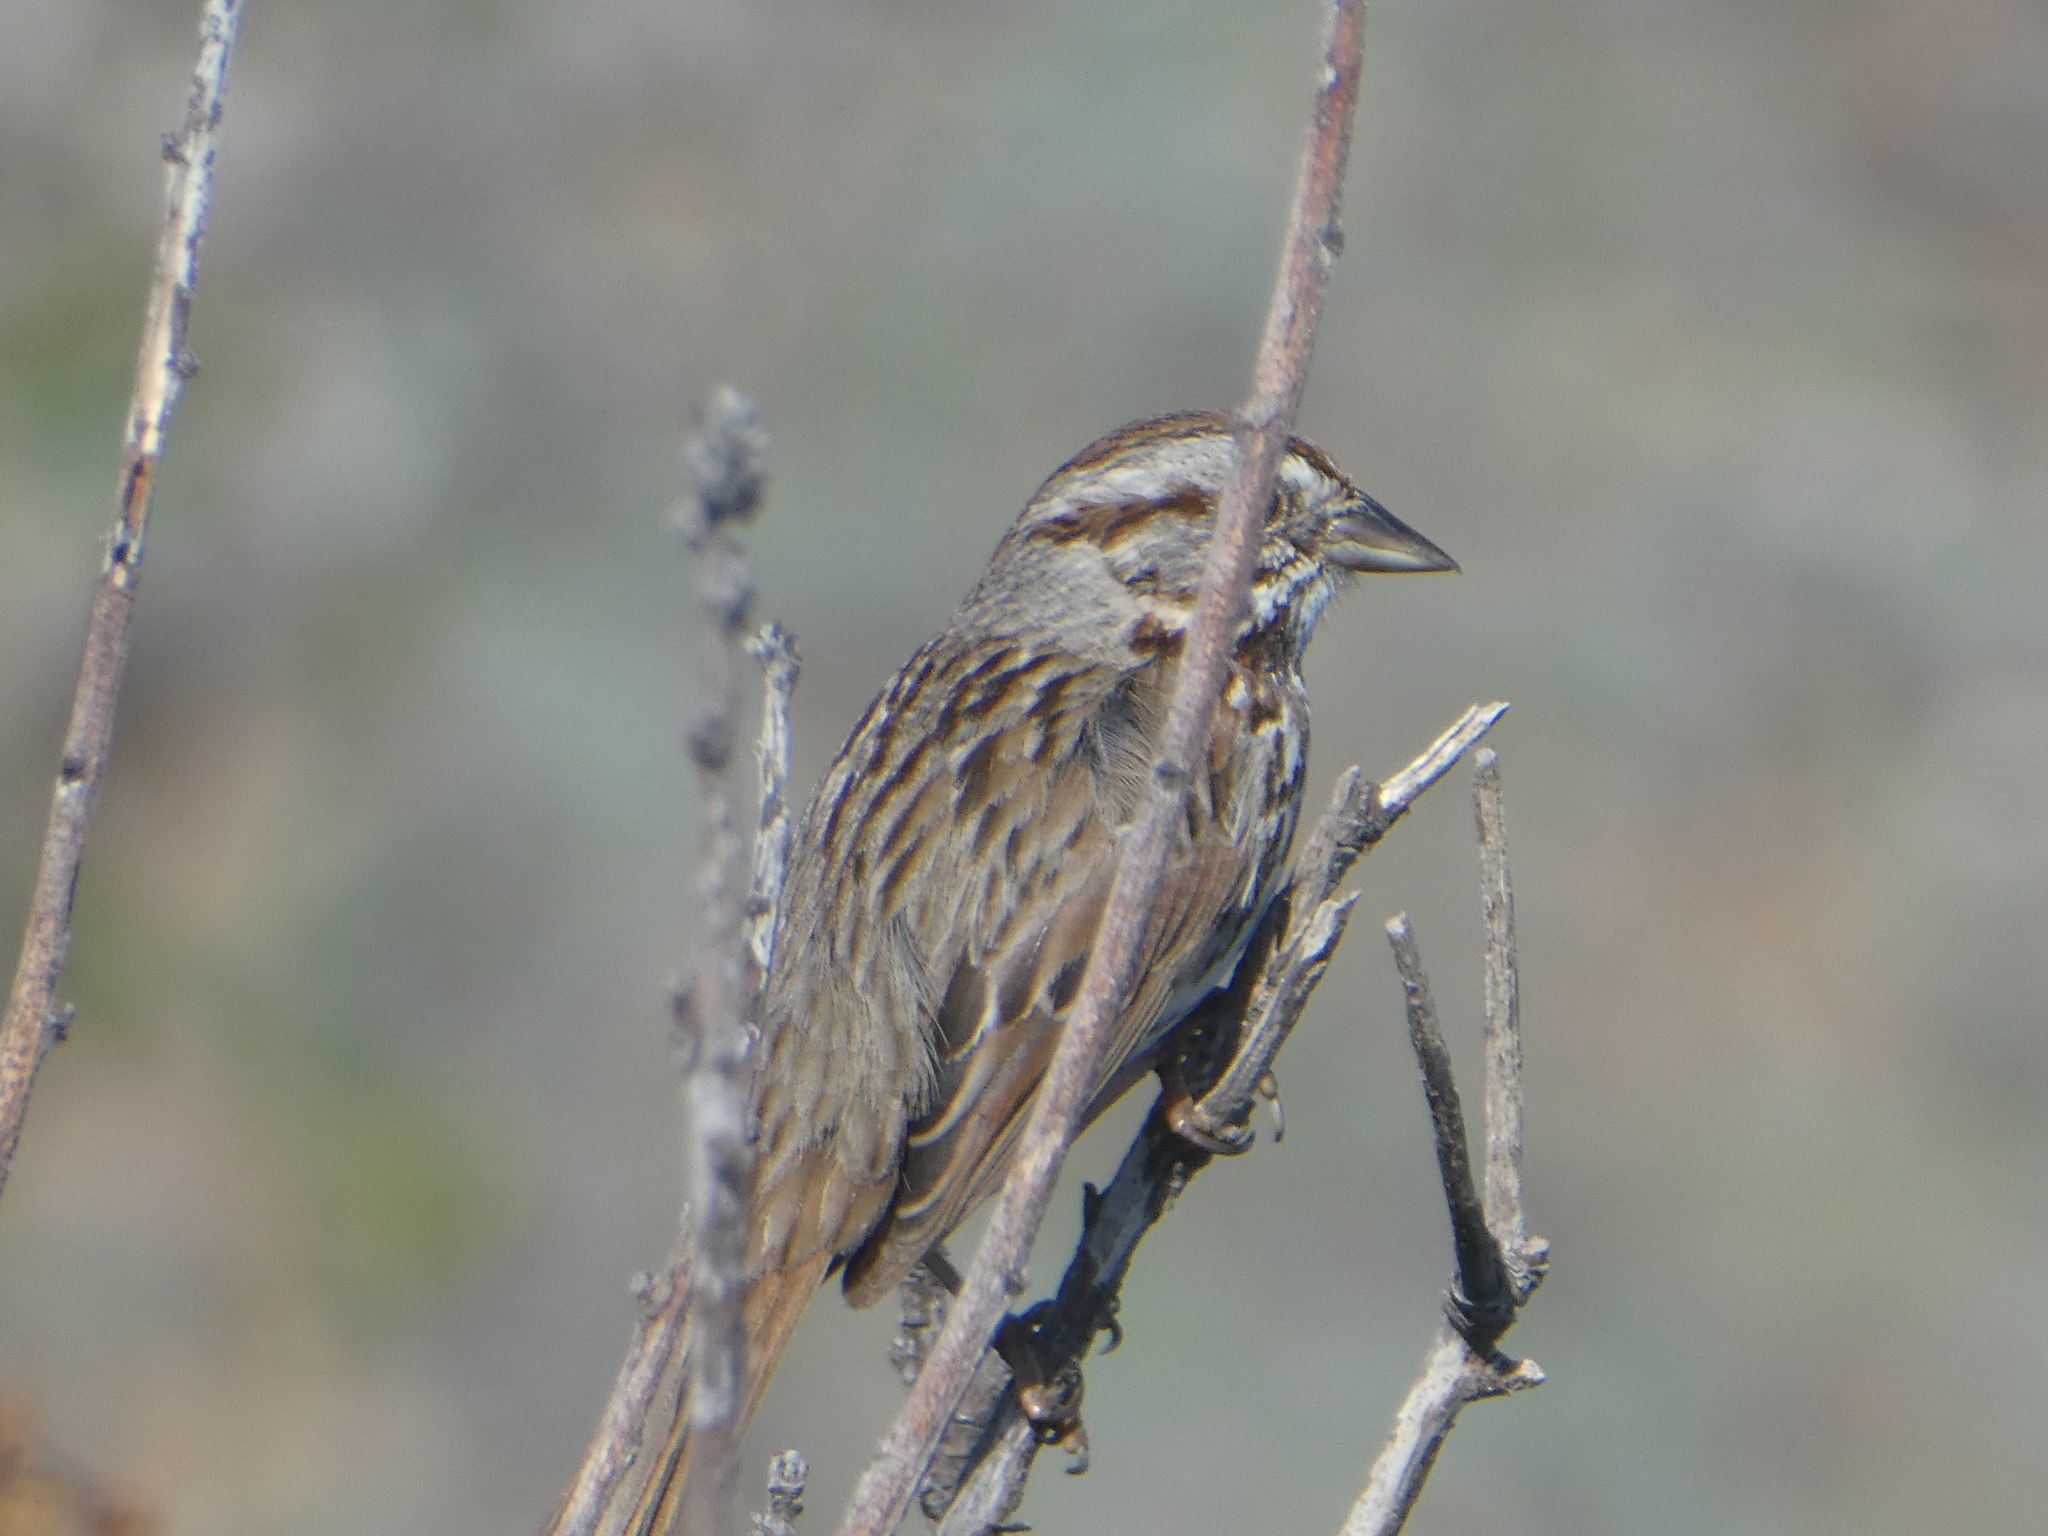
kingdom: Animalia
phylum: Chordata
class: Aves
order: Passeriformes
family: Passerellidae
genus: Melospiza
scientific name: Melospiza melodia
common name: Song sparrow
